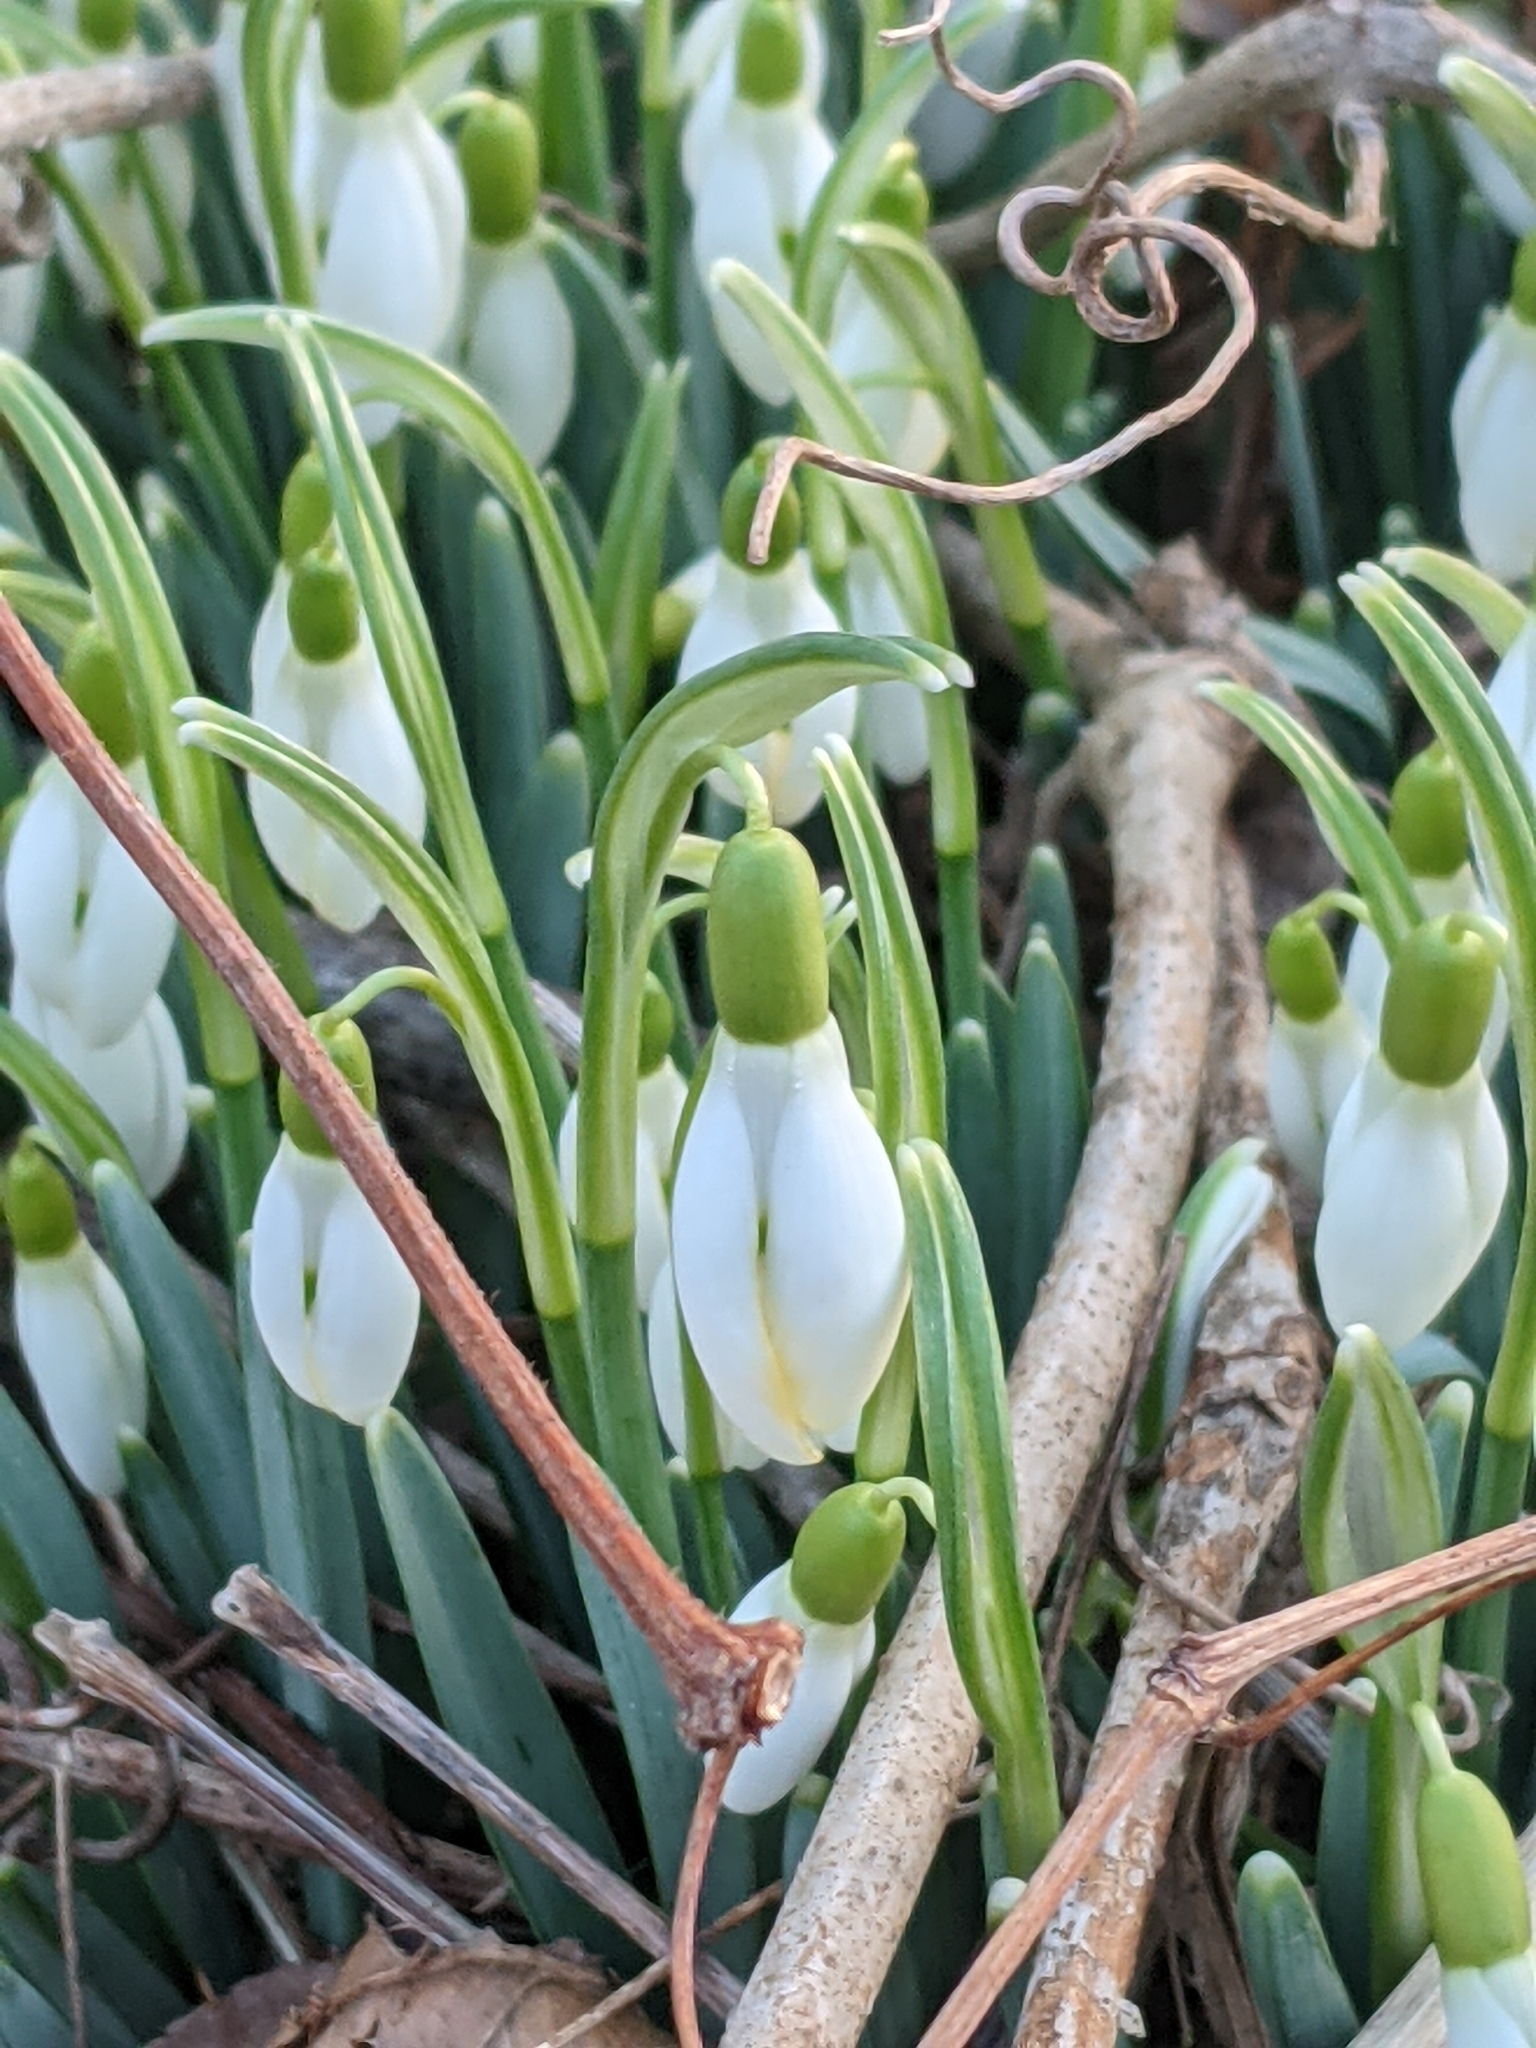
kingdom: Plantae
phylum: Tracheophyta
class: Liliopsida
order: Asparagales
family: Amaryllidaceae
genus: Galanthus
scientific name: Galanthus nivalis
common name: Snowdrop
